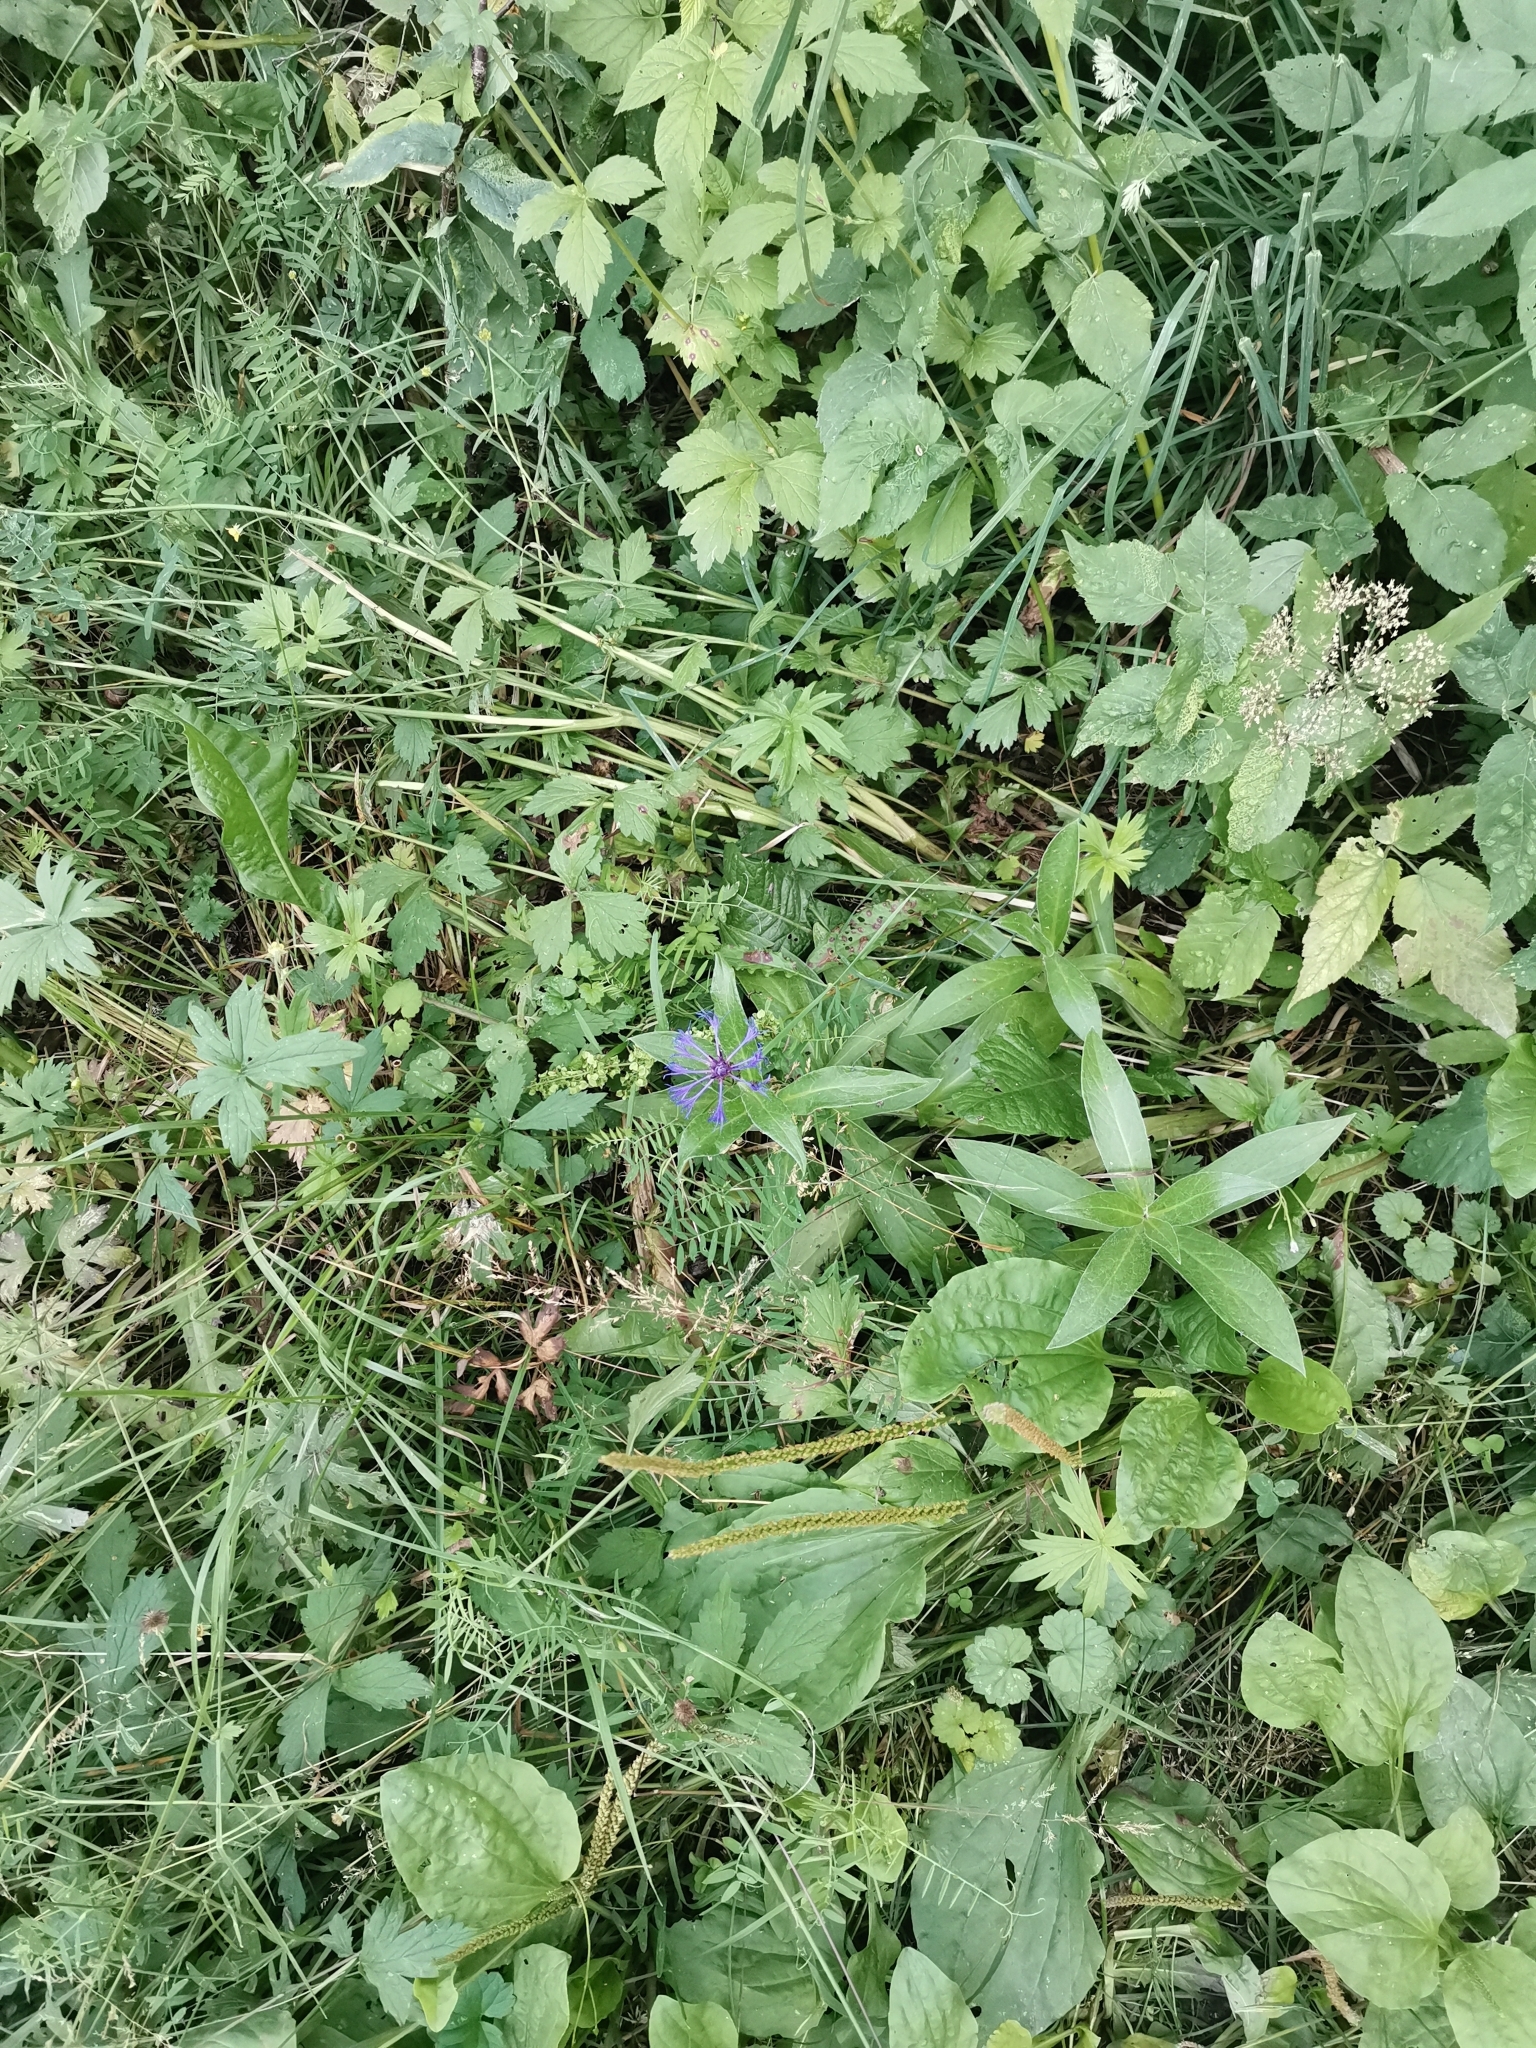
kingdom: Plantae
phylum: Tracheophyta
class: Magnoliopsida
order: Asterales
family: Asteraceae
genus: Centaurea
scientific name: Centaurea montana
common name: Perennial cornflower
